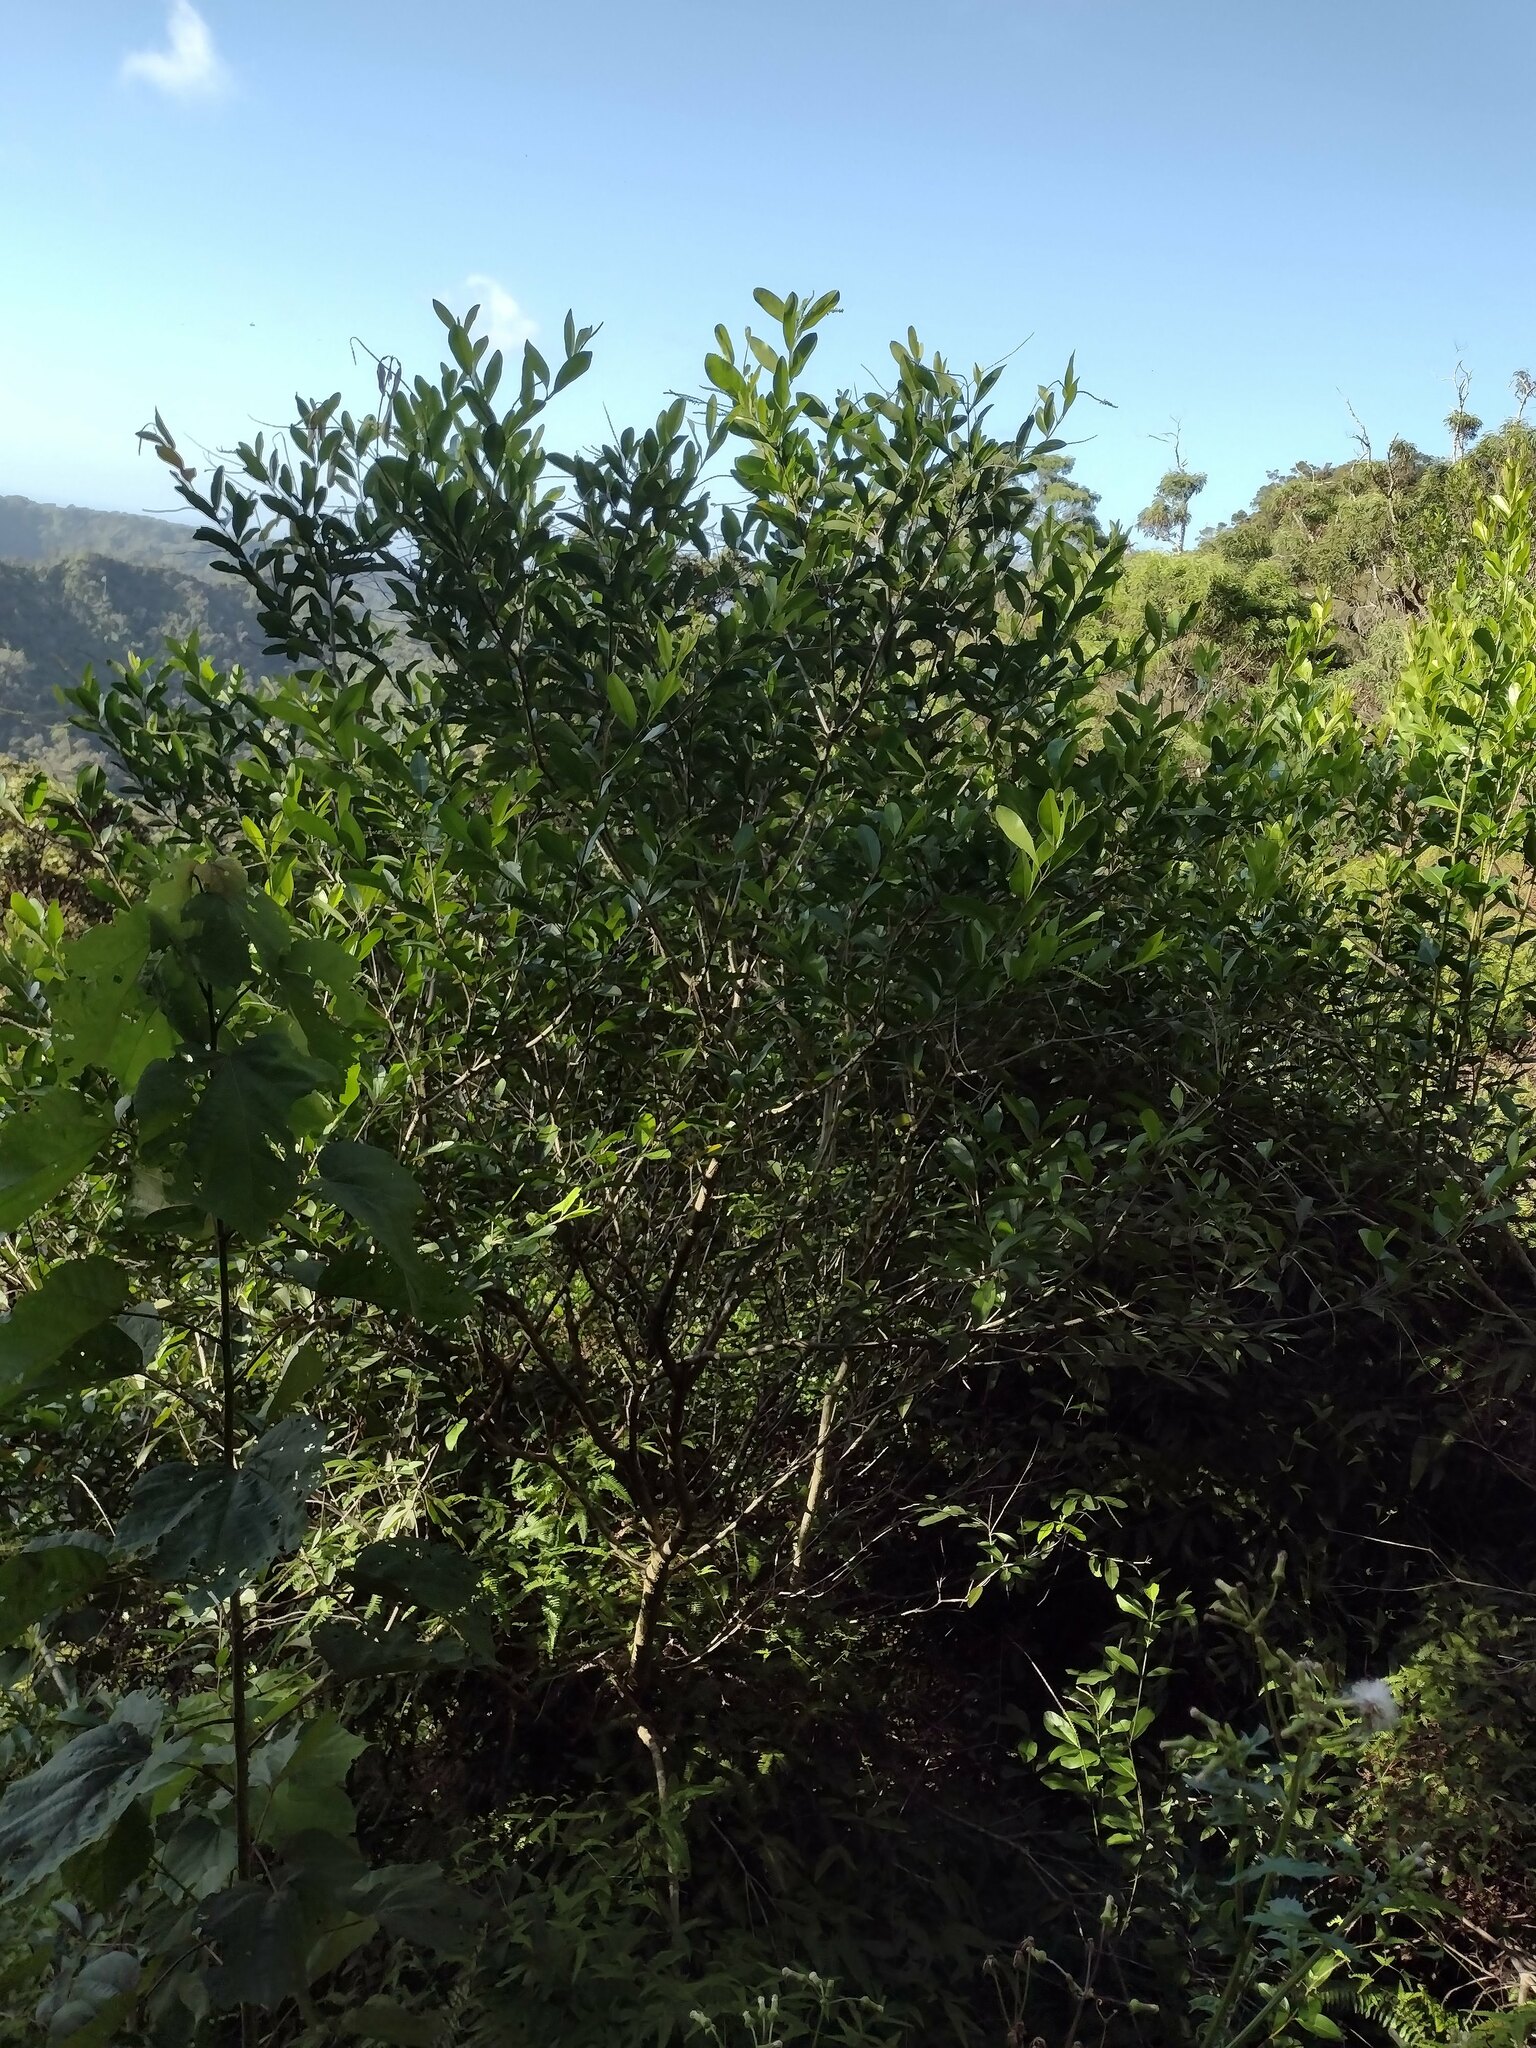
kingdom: Plantae
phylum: Tracheophyta
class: Magnoliopsida
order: Lamiales
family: Verbenaceae
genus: Citharexylum
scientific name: Citharexylum caudatum
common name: Fiddlewood
